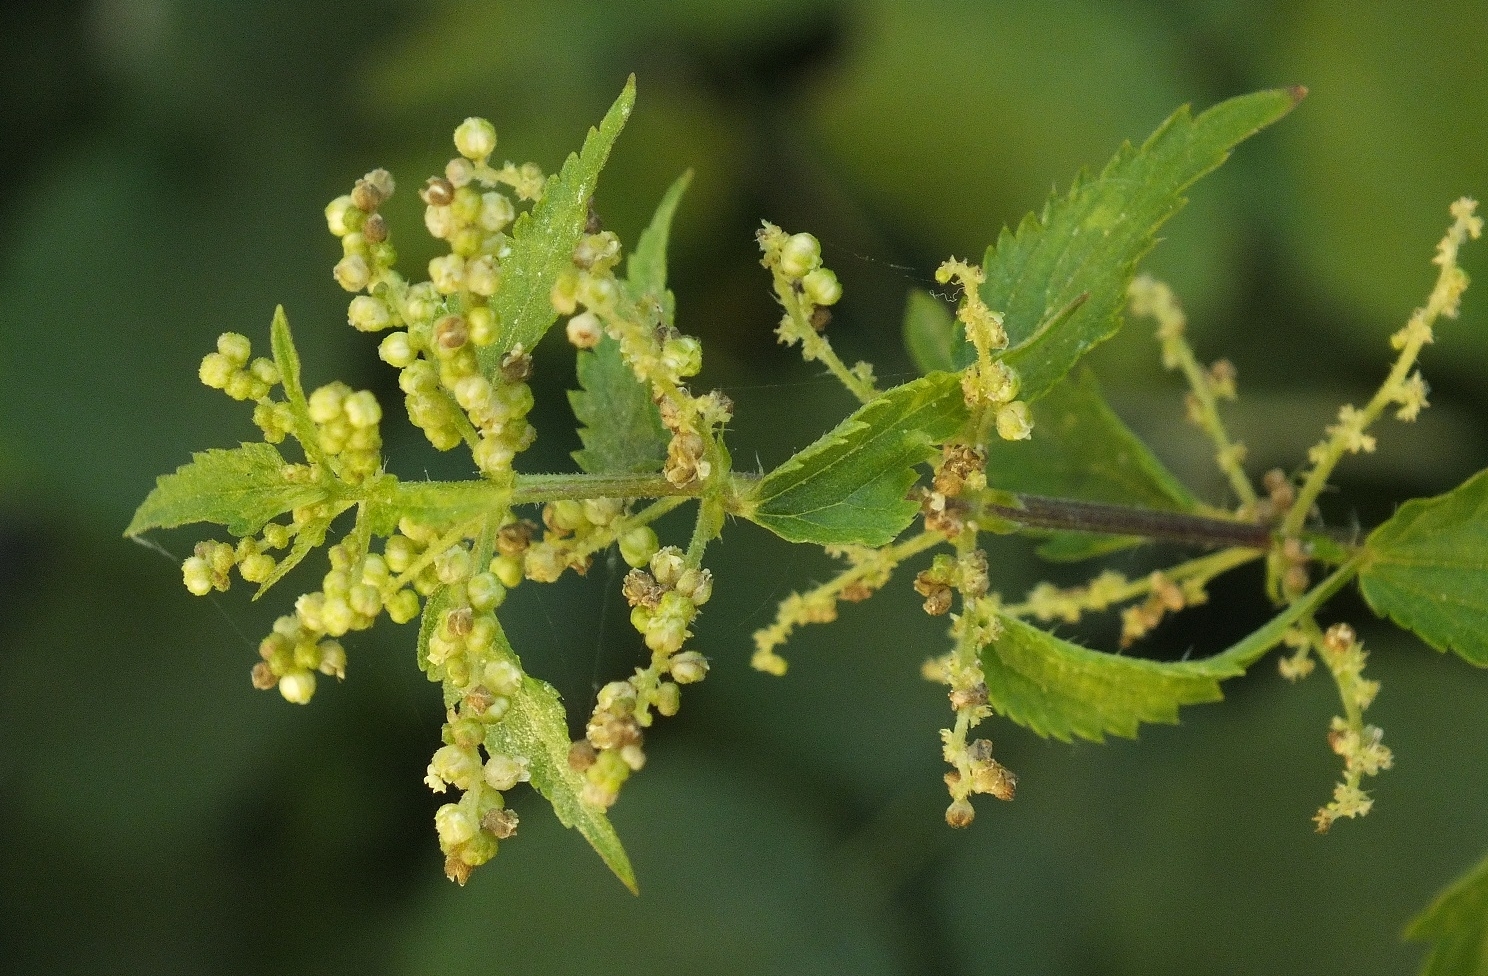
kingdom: Plantae
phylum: Tracheophyta
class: Magnoliopsida
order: Rosales
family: Urticaceae
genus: Urtica
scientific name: Urtica dioica
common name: Common nettle
